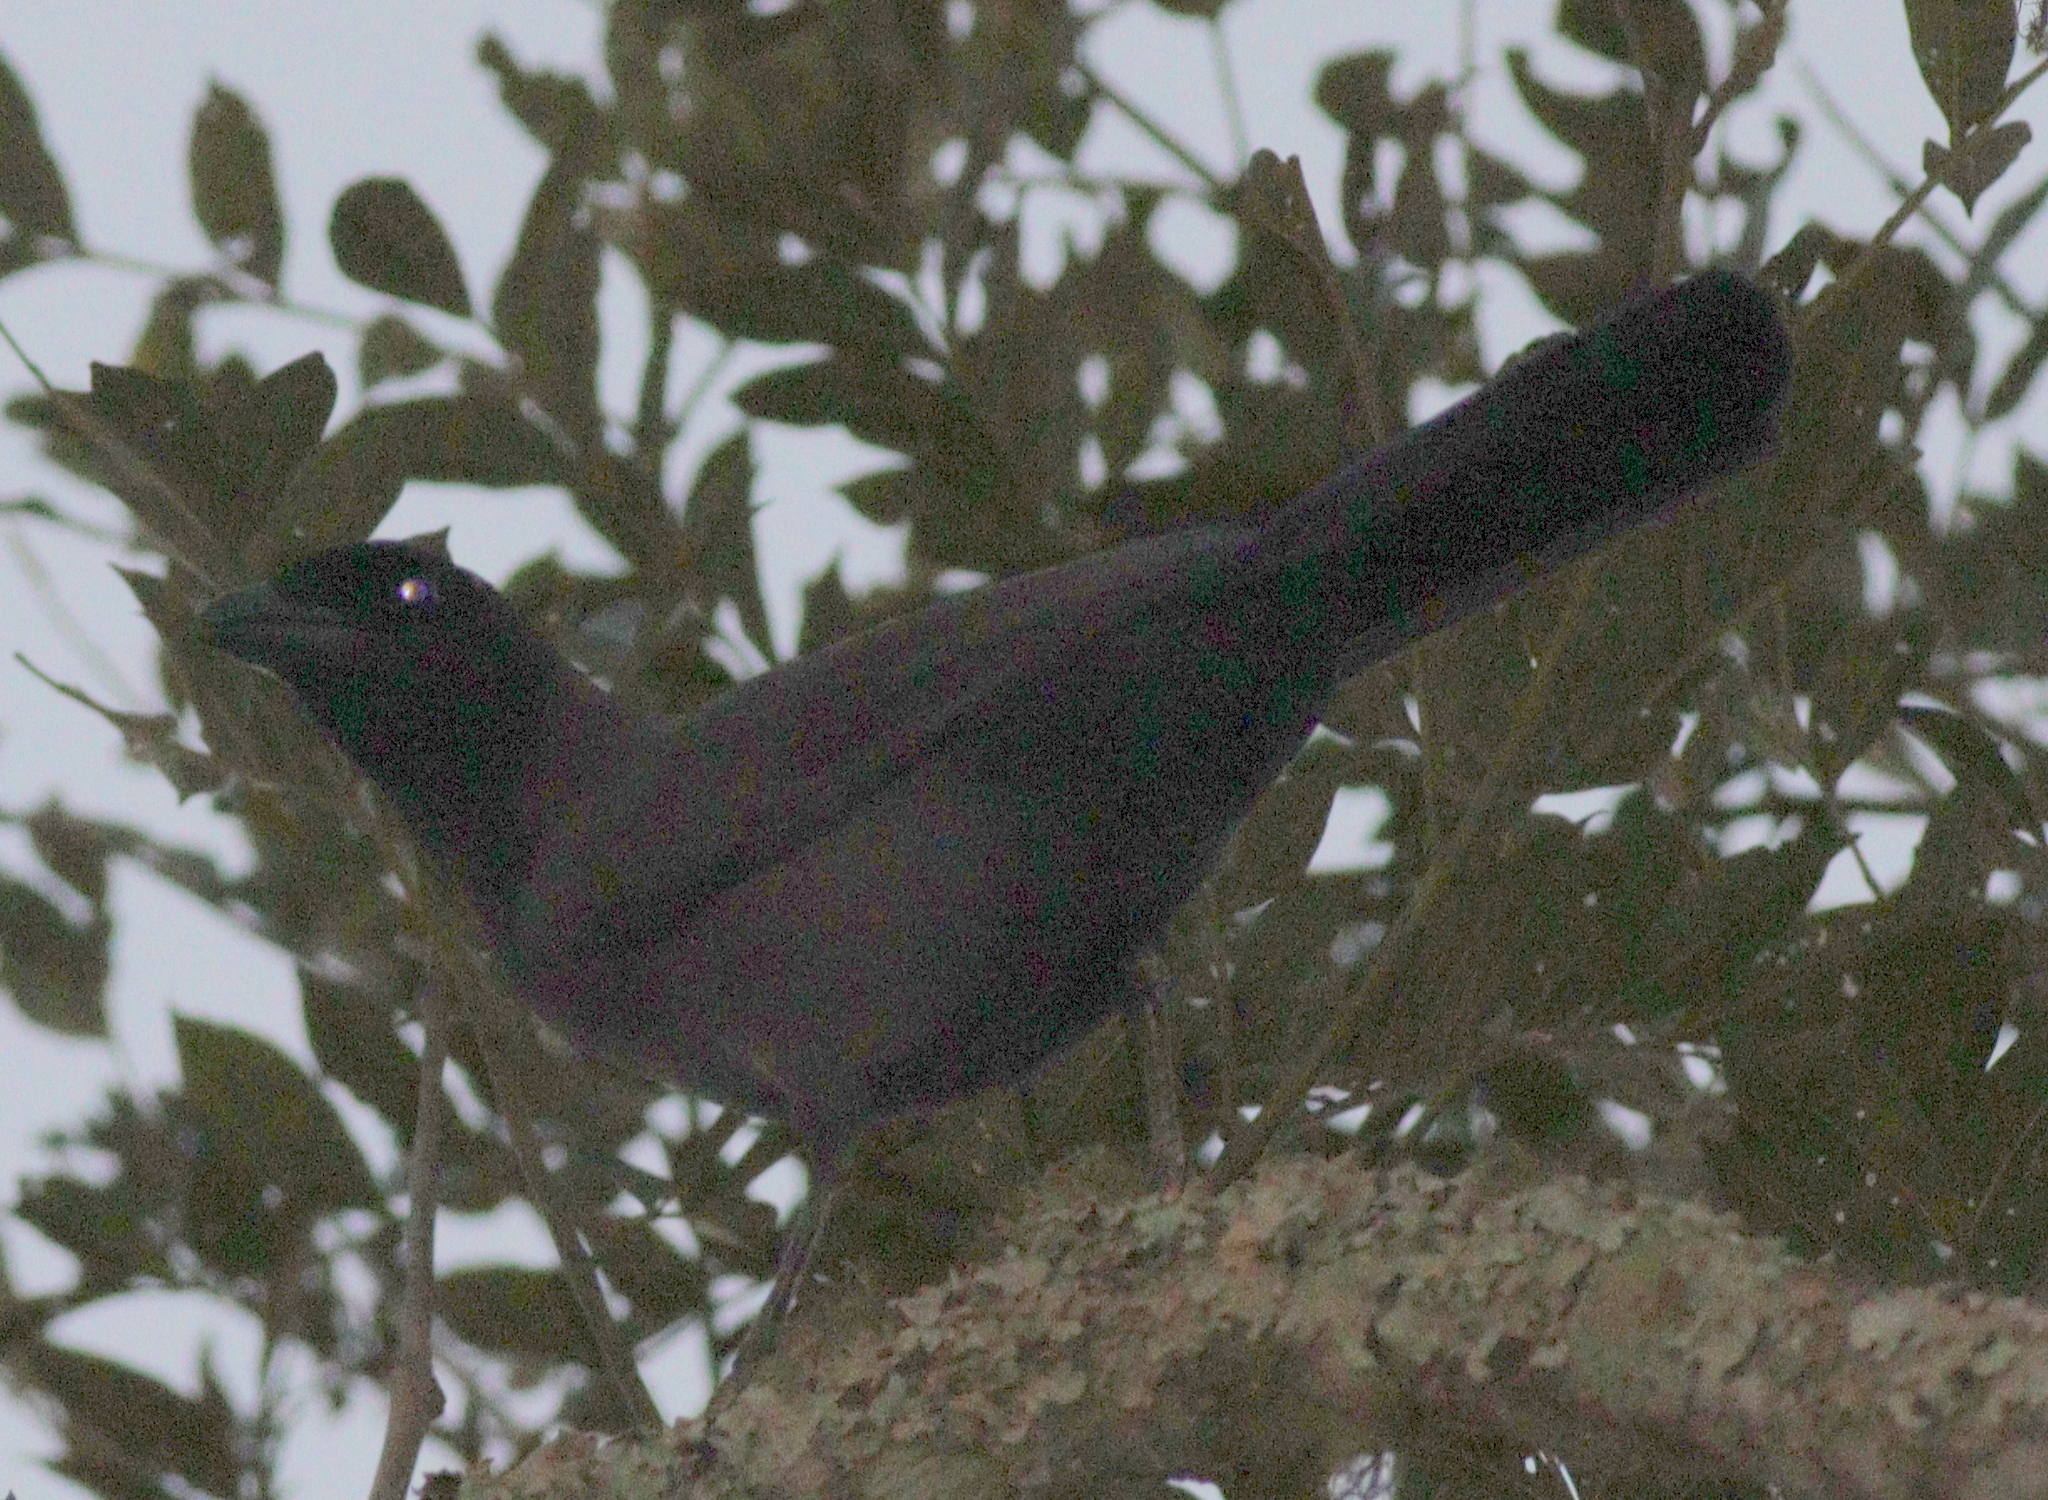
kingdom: Animalia
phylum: Chordata
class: Aves
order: Passeriformes
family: Corvidae
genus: Cyanocorax
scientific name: Cyanocorax cyanomelas
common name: Purplish jay
